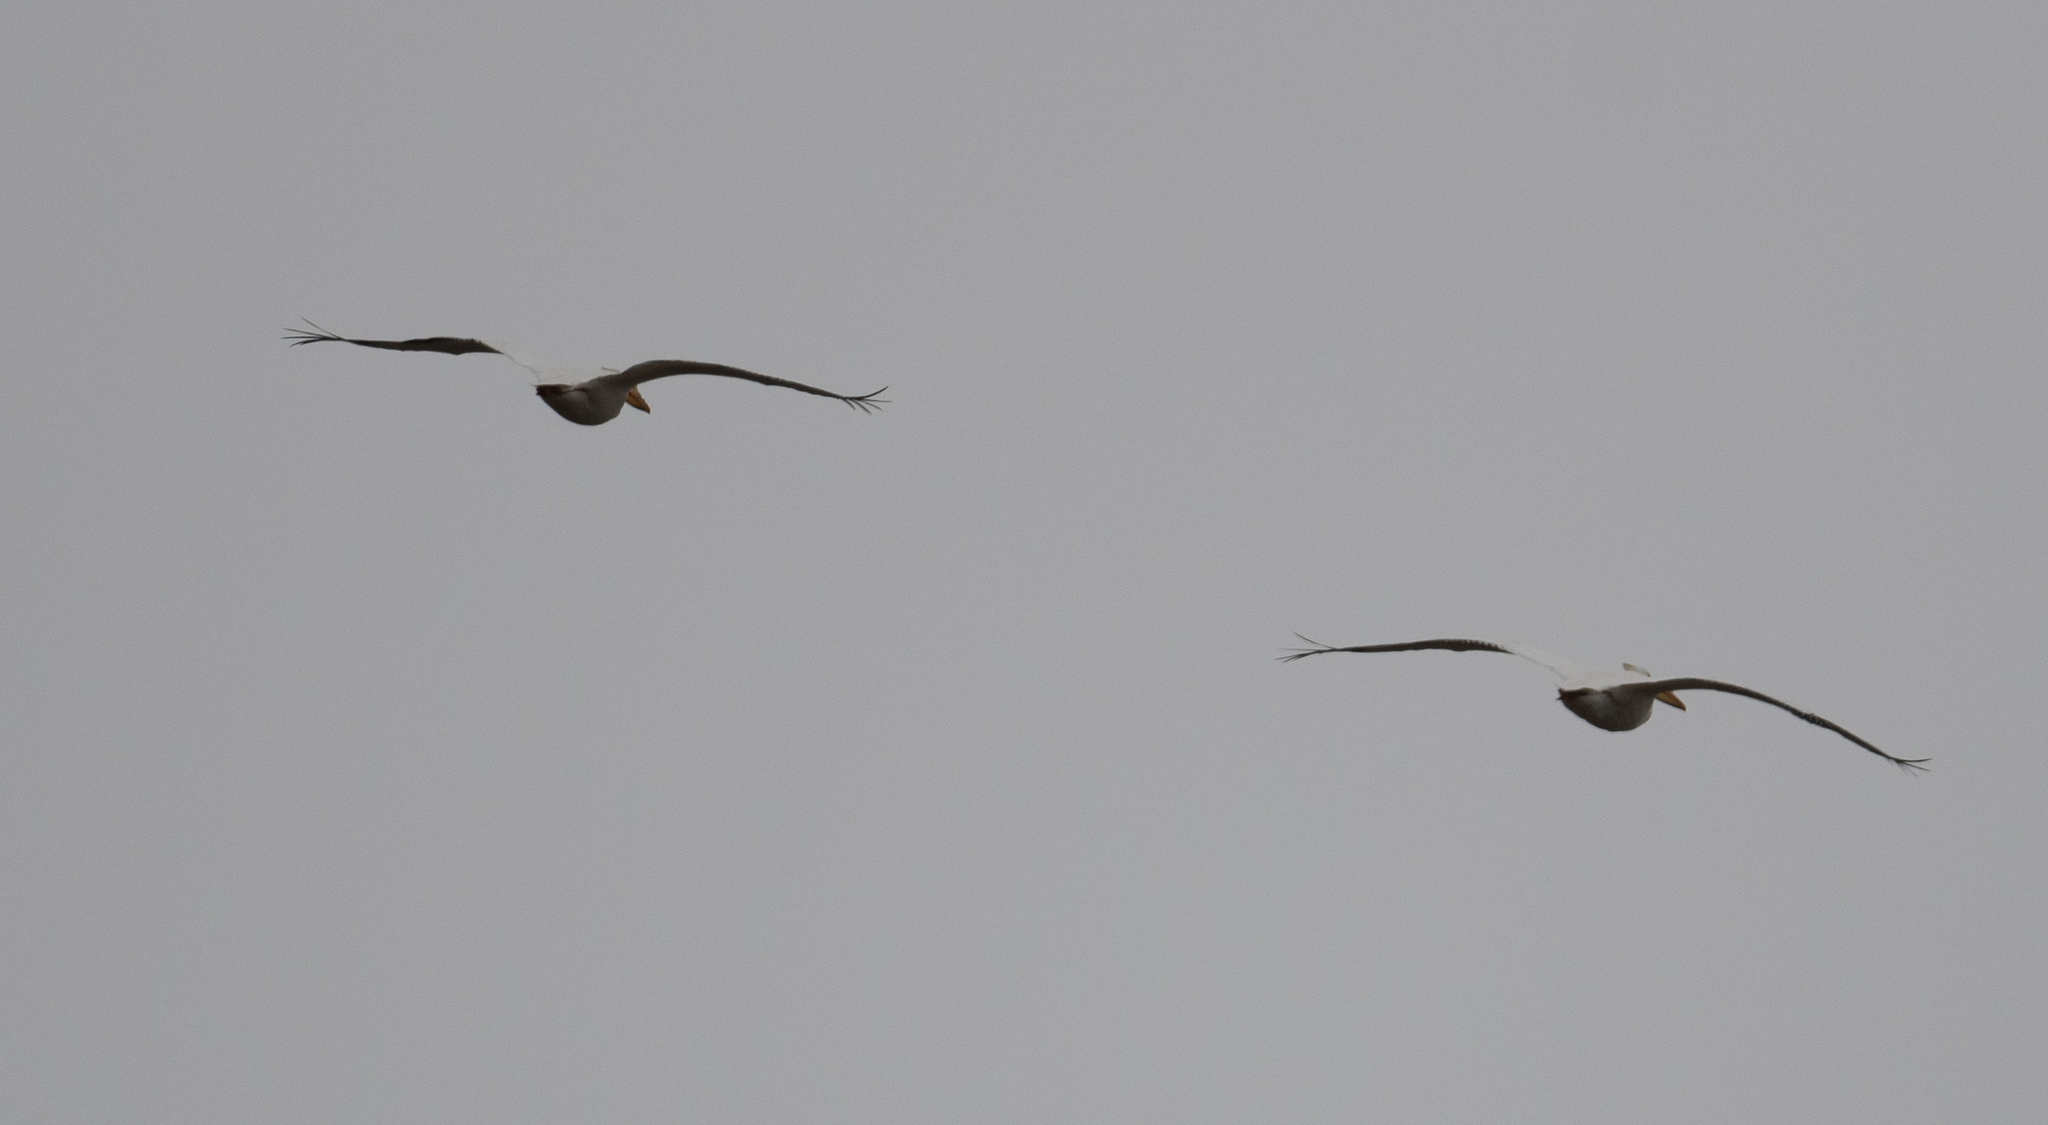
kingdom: Animalia
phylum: Chordata
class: Aves
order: Pelecaniformes
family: Pelecanidae
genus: Pelecanus
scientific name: Pelecanus erythrorhynchos
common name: American white pelican
